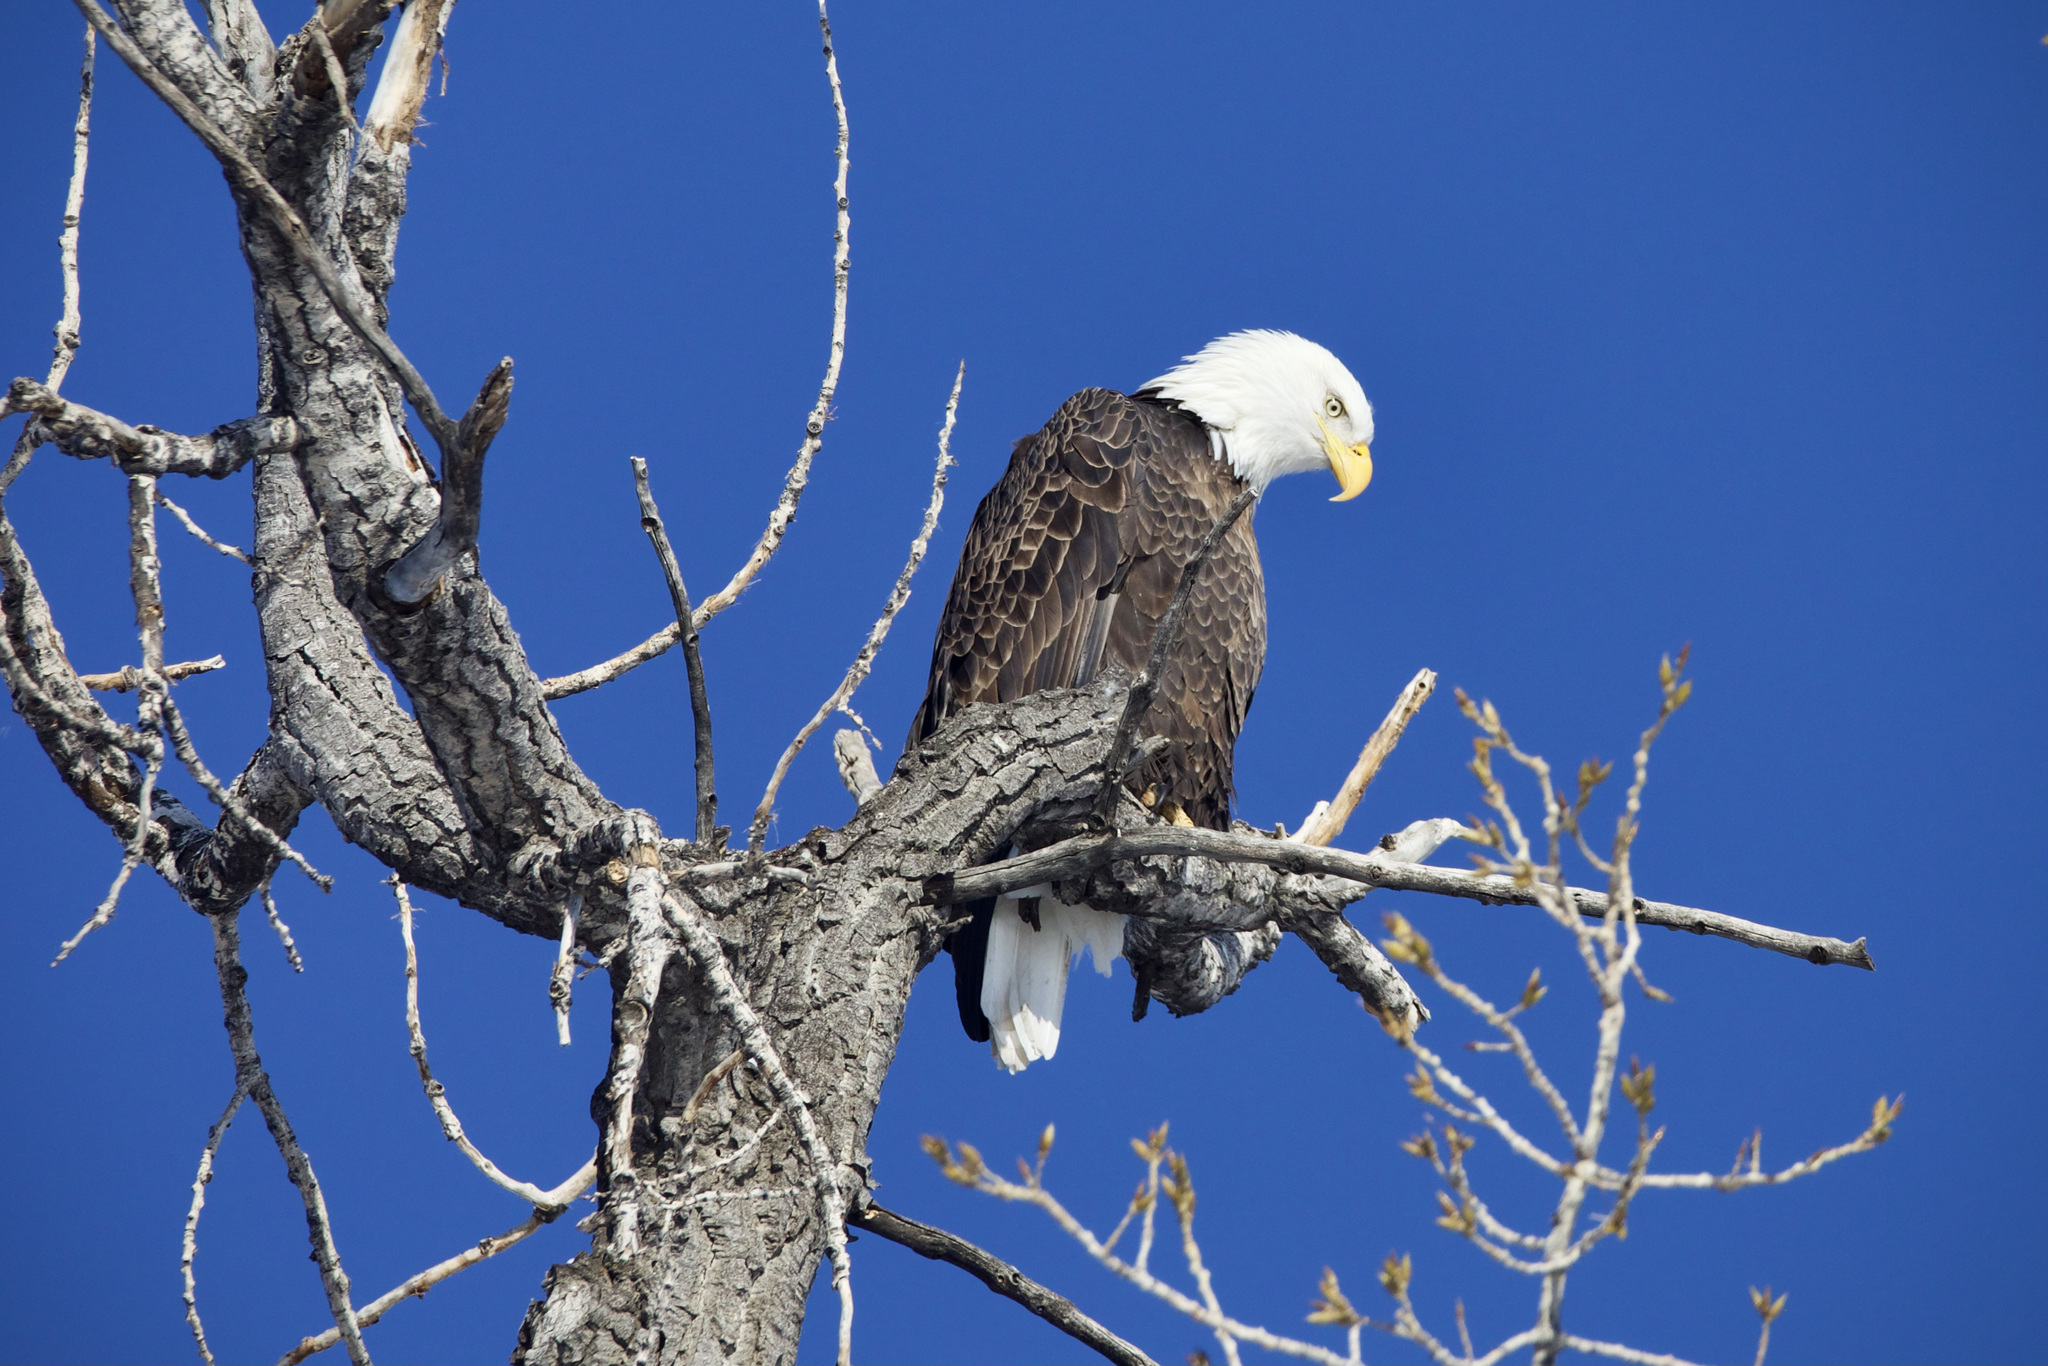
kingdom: Animalia
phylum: Chordata
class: Aves
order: Accipitriformes
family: Accipitridae
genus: Haliaeetus
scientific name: Haliaeetus leucocephalus
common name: Bald eagle
